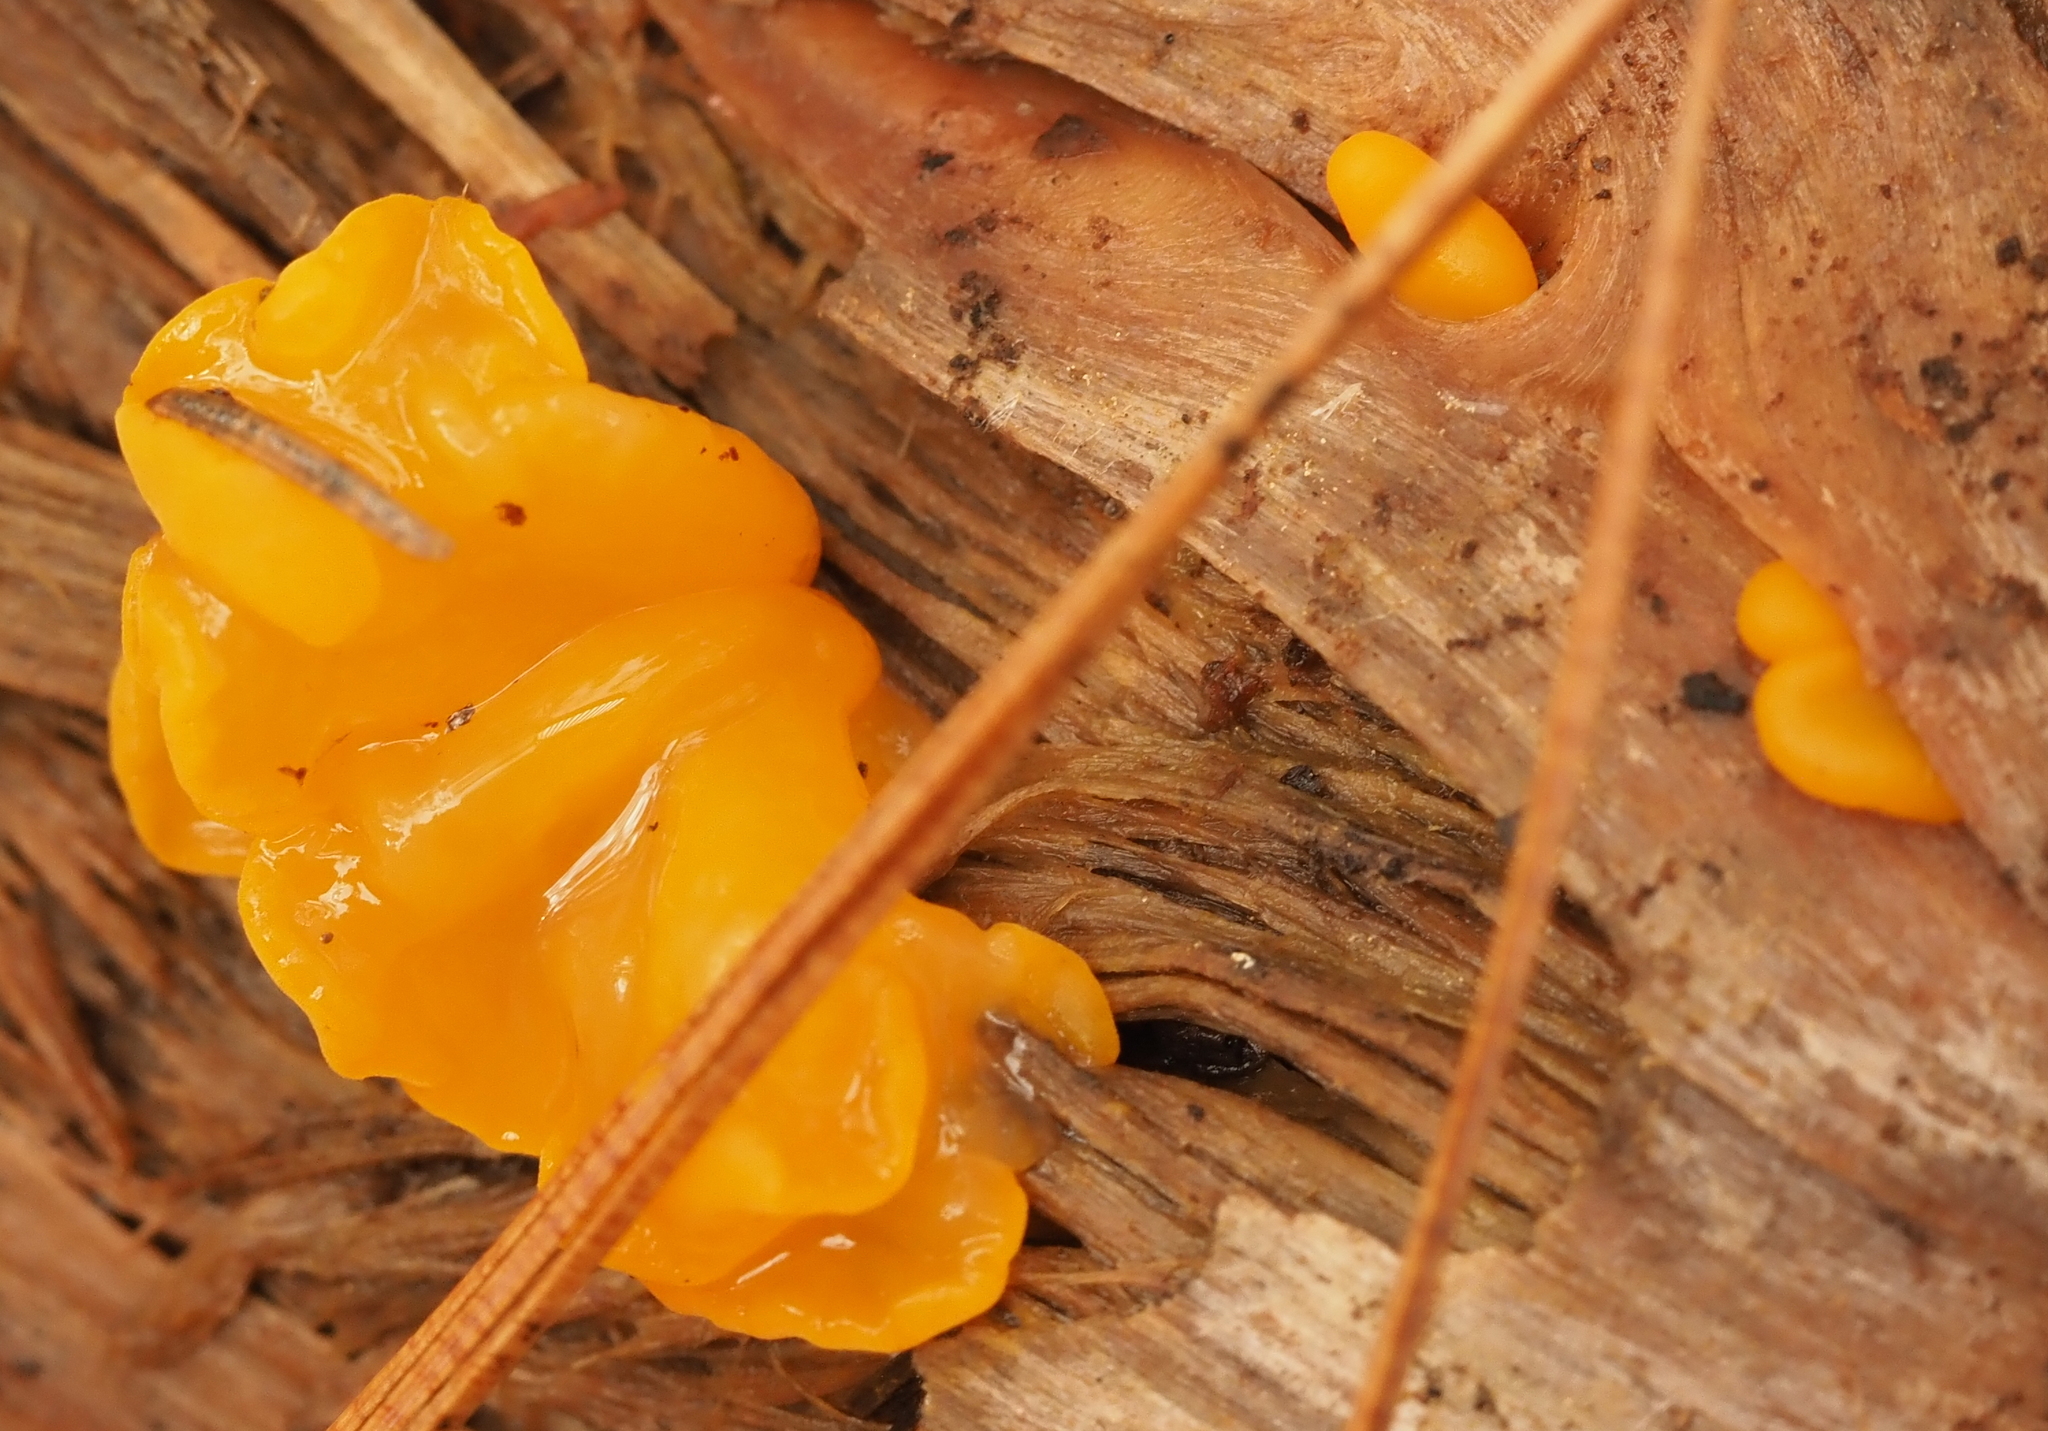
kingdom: Fungi
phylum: Basidiomycota
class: Dacrymycetes
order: Dacrymycetales
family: Dacrymycetaceae
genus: Dacrymyces
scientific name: Dacrymyces chrysospermus
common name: Orange jelly spot
